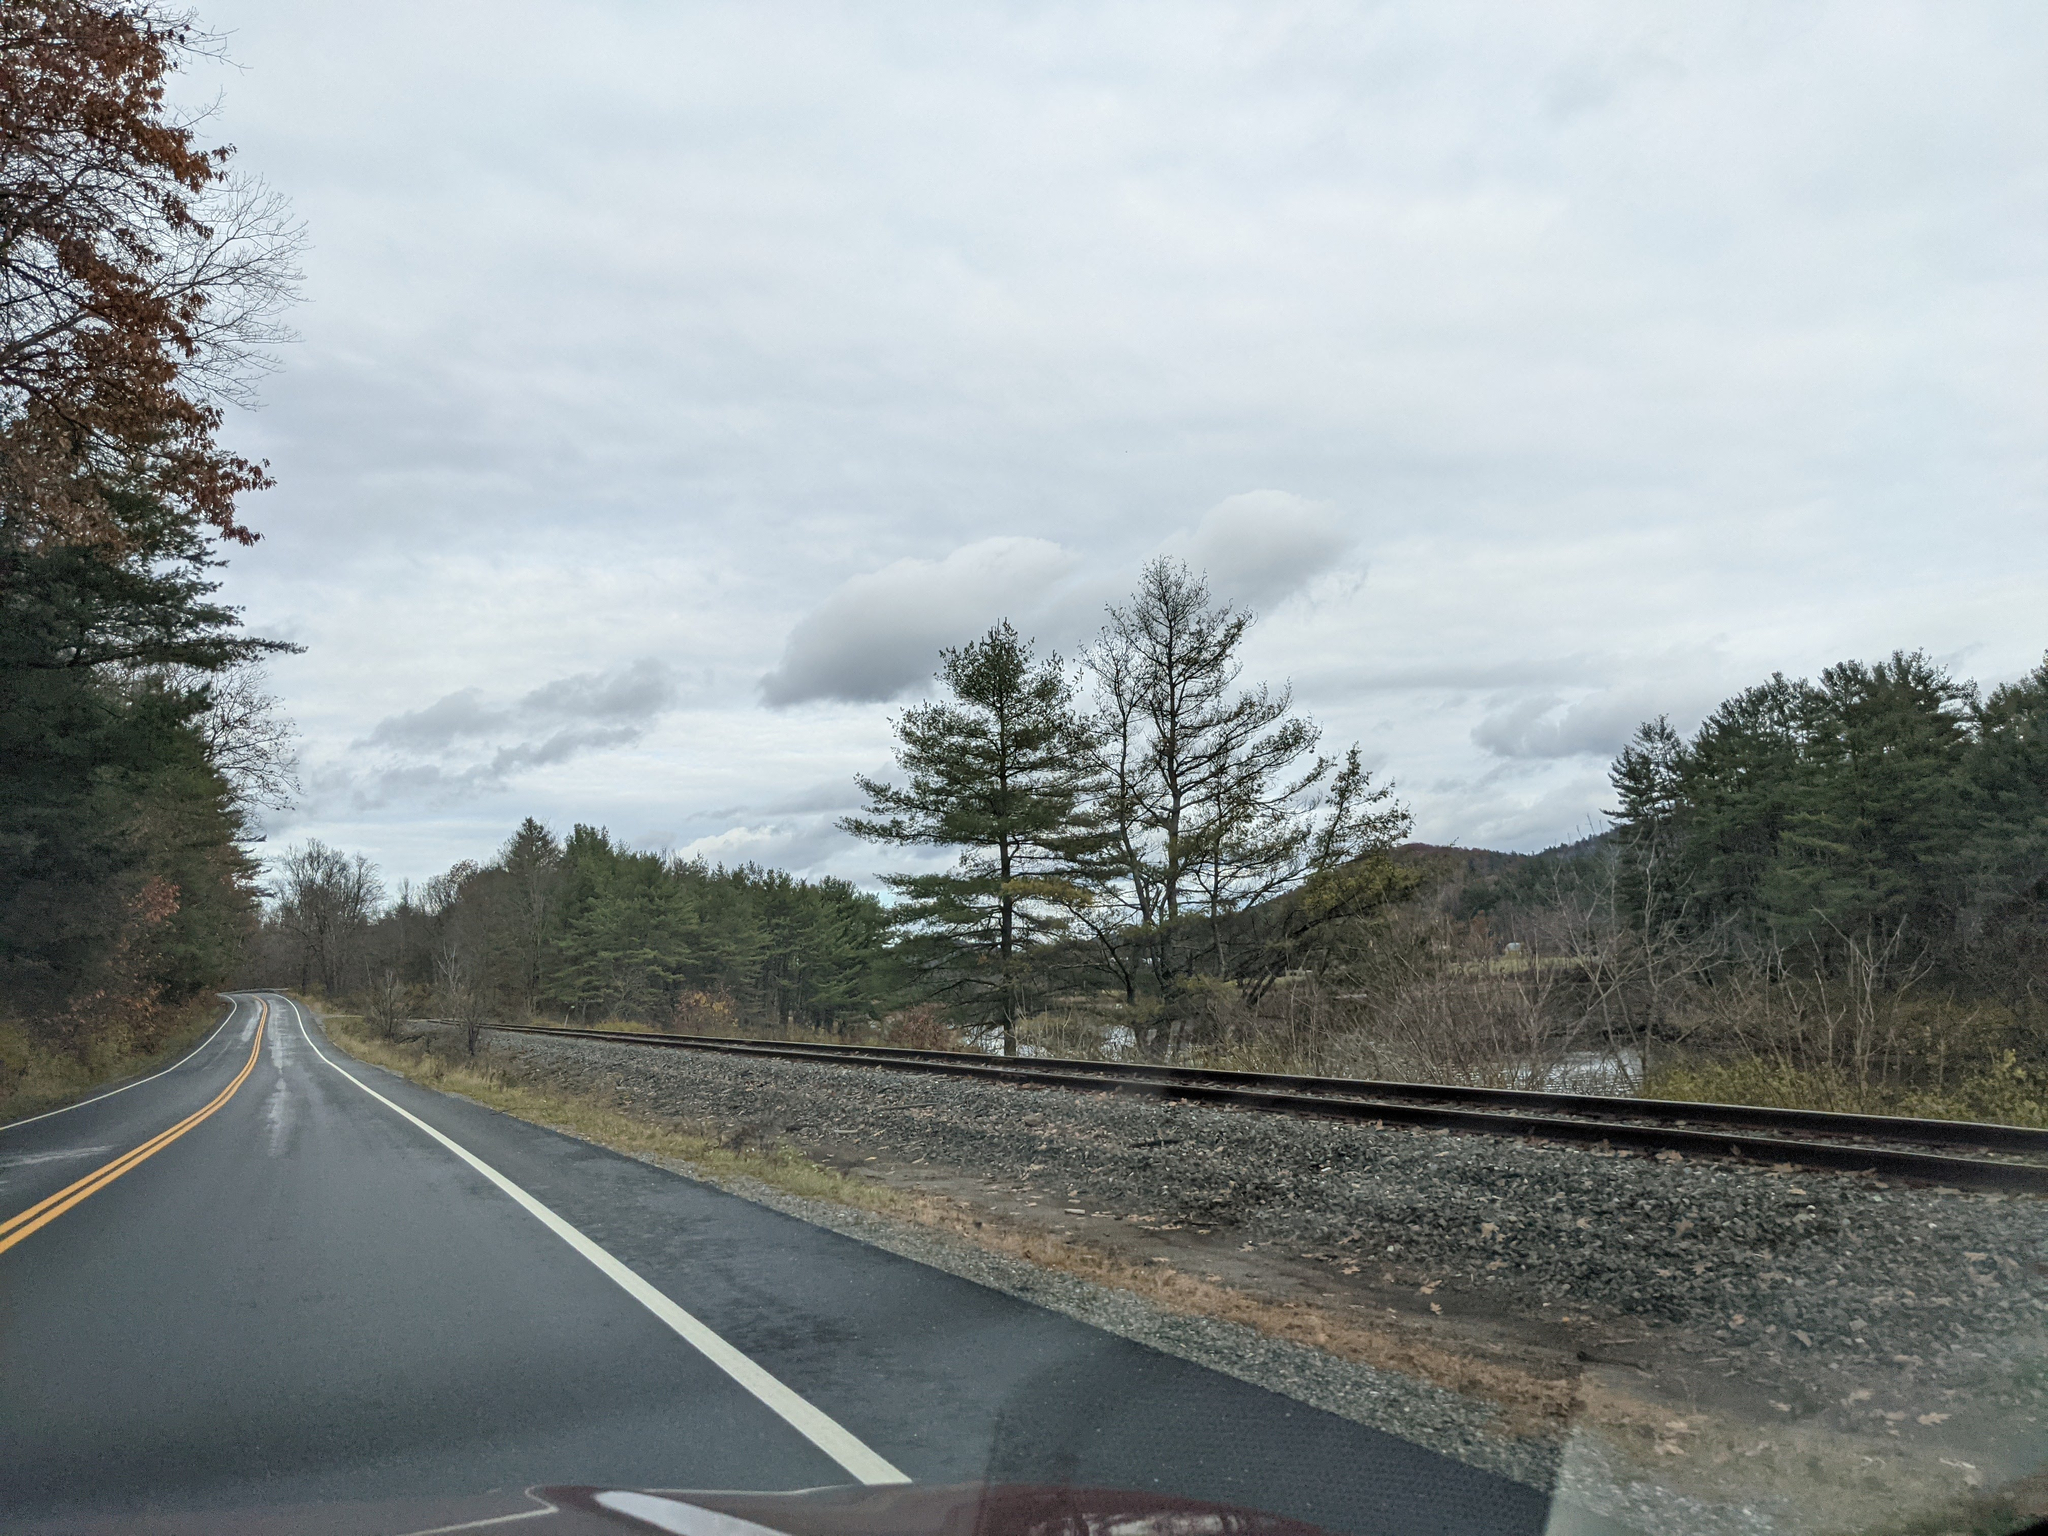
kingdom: Plantae
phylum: Tracheophyta
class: Pinopsida
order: Pinales
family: Pinaceae
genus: Pinus
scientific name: Pinus strobus
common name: Weymouth pine
